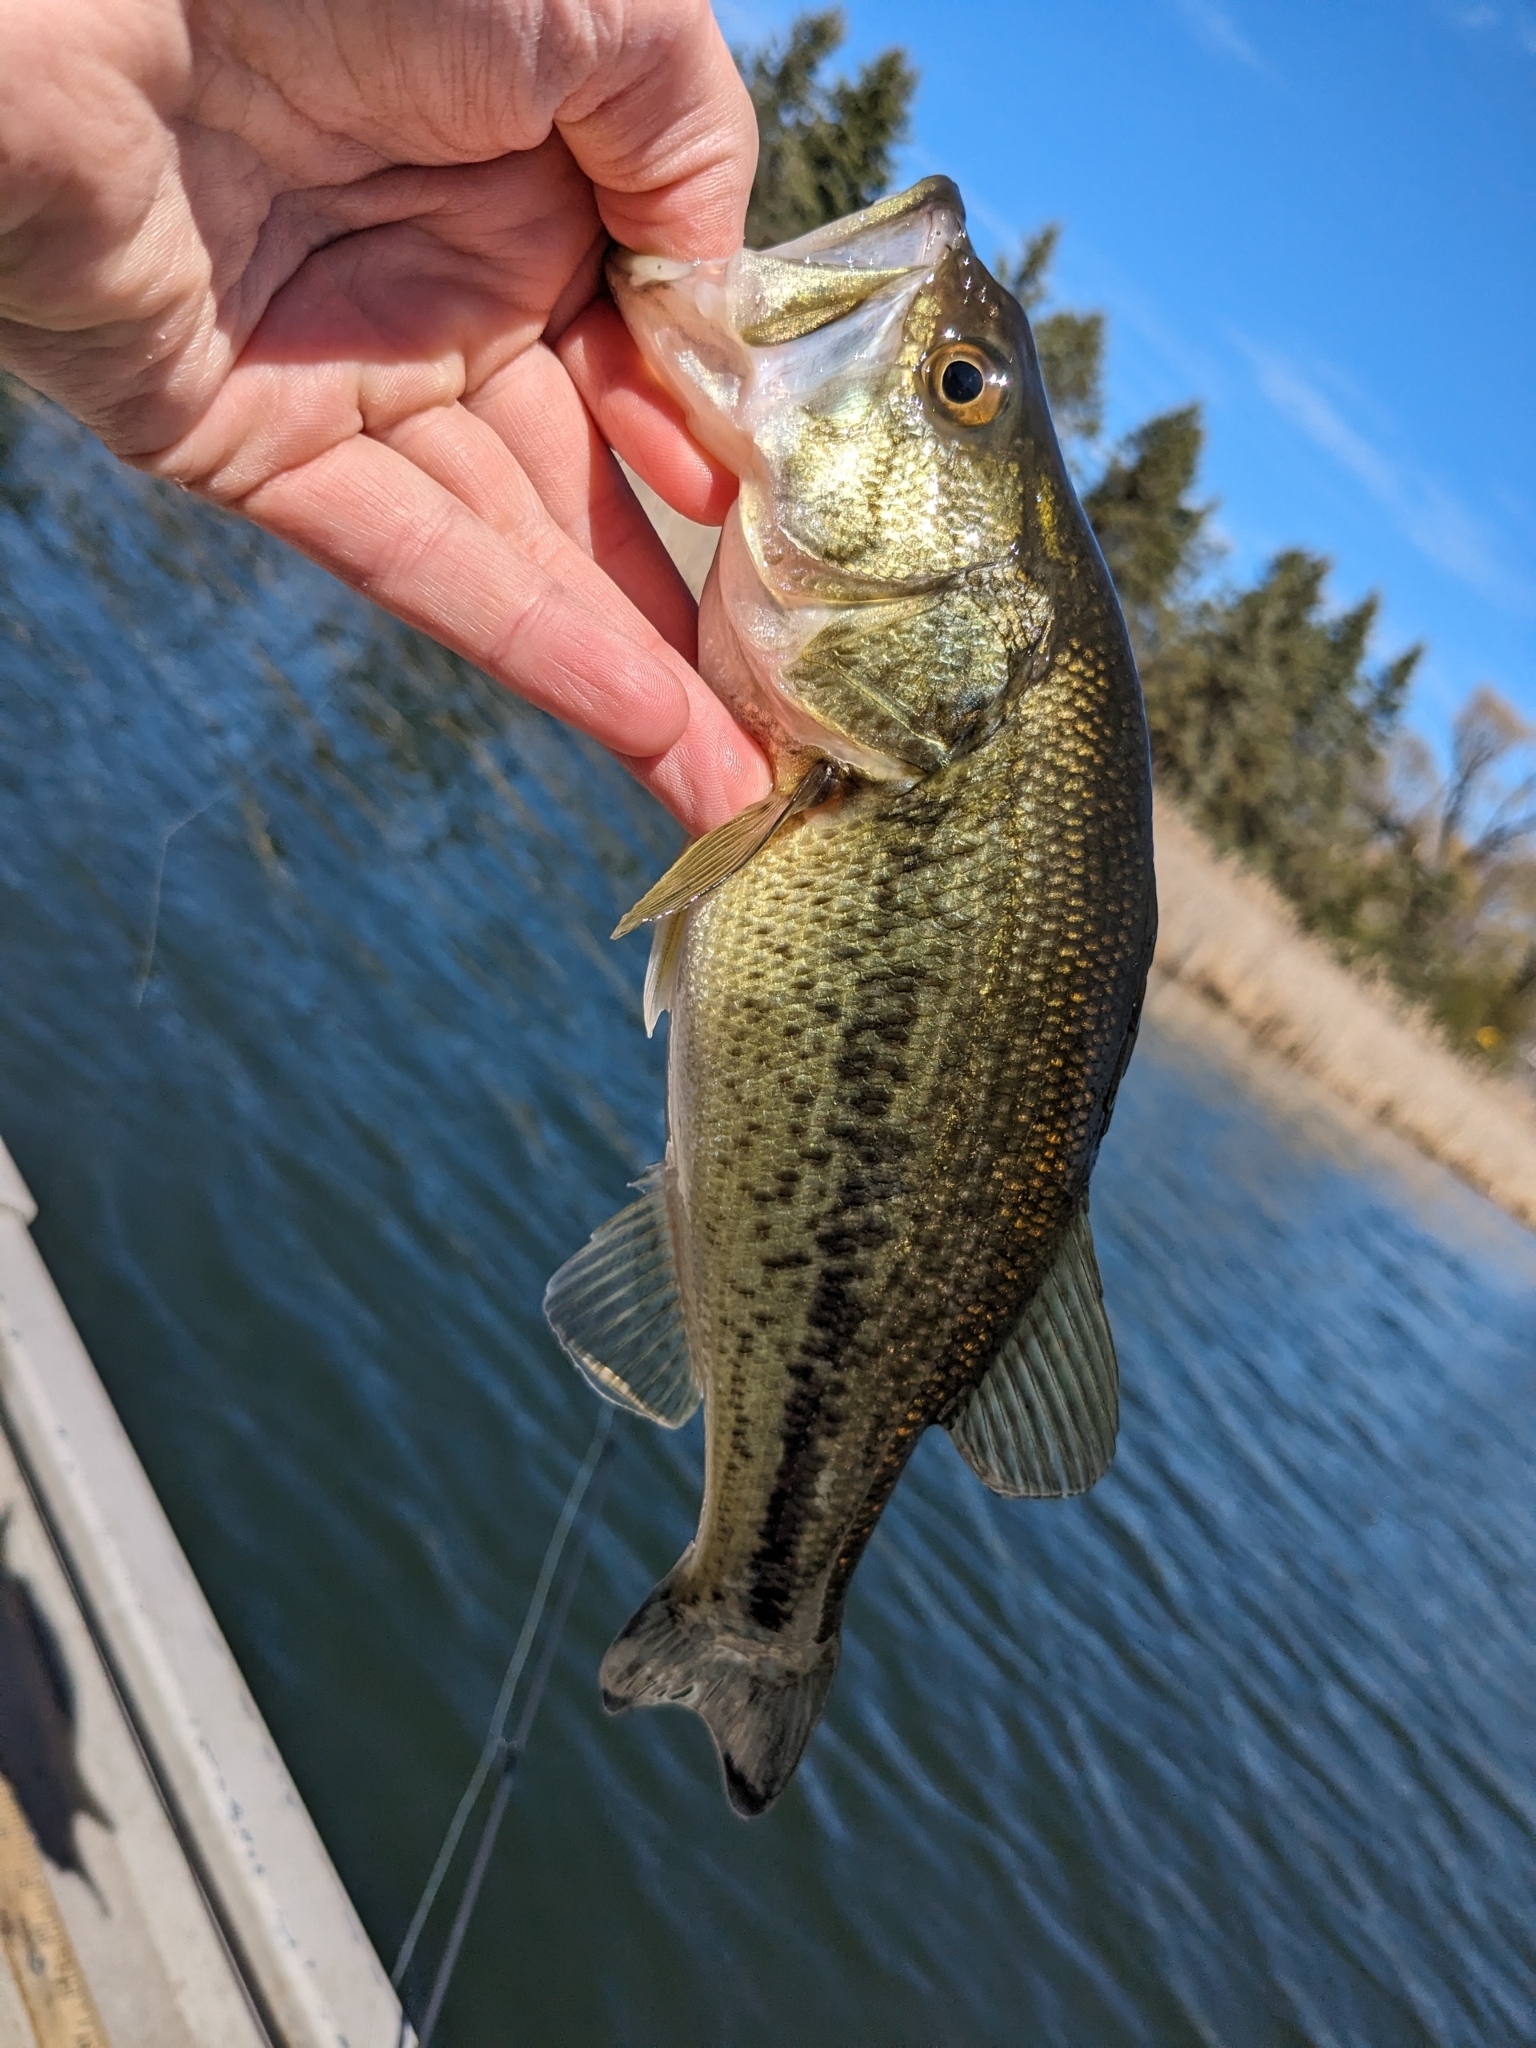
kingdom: Animalia
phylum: Chordata
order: Perciformes
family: Centrarchidae
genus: Micropterus
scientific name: Micropterus
